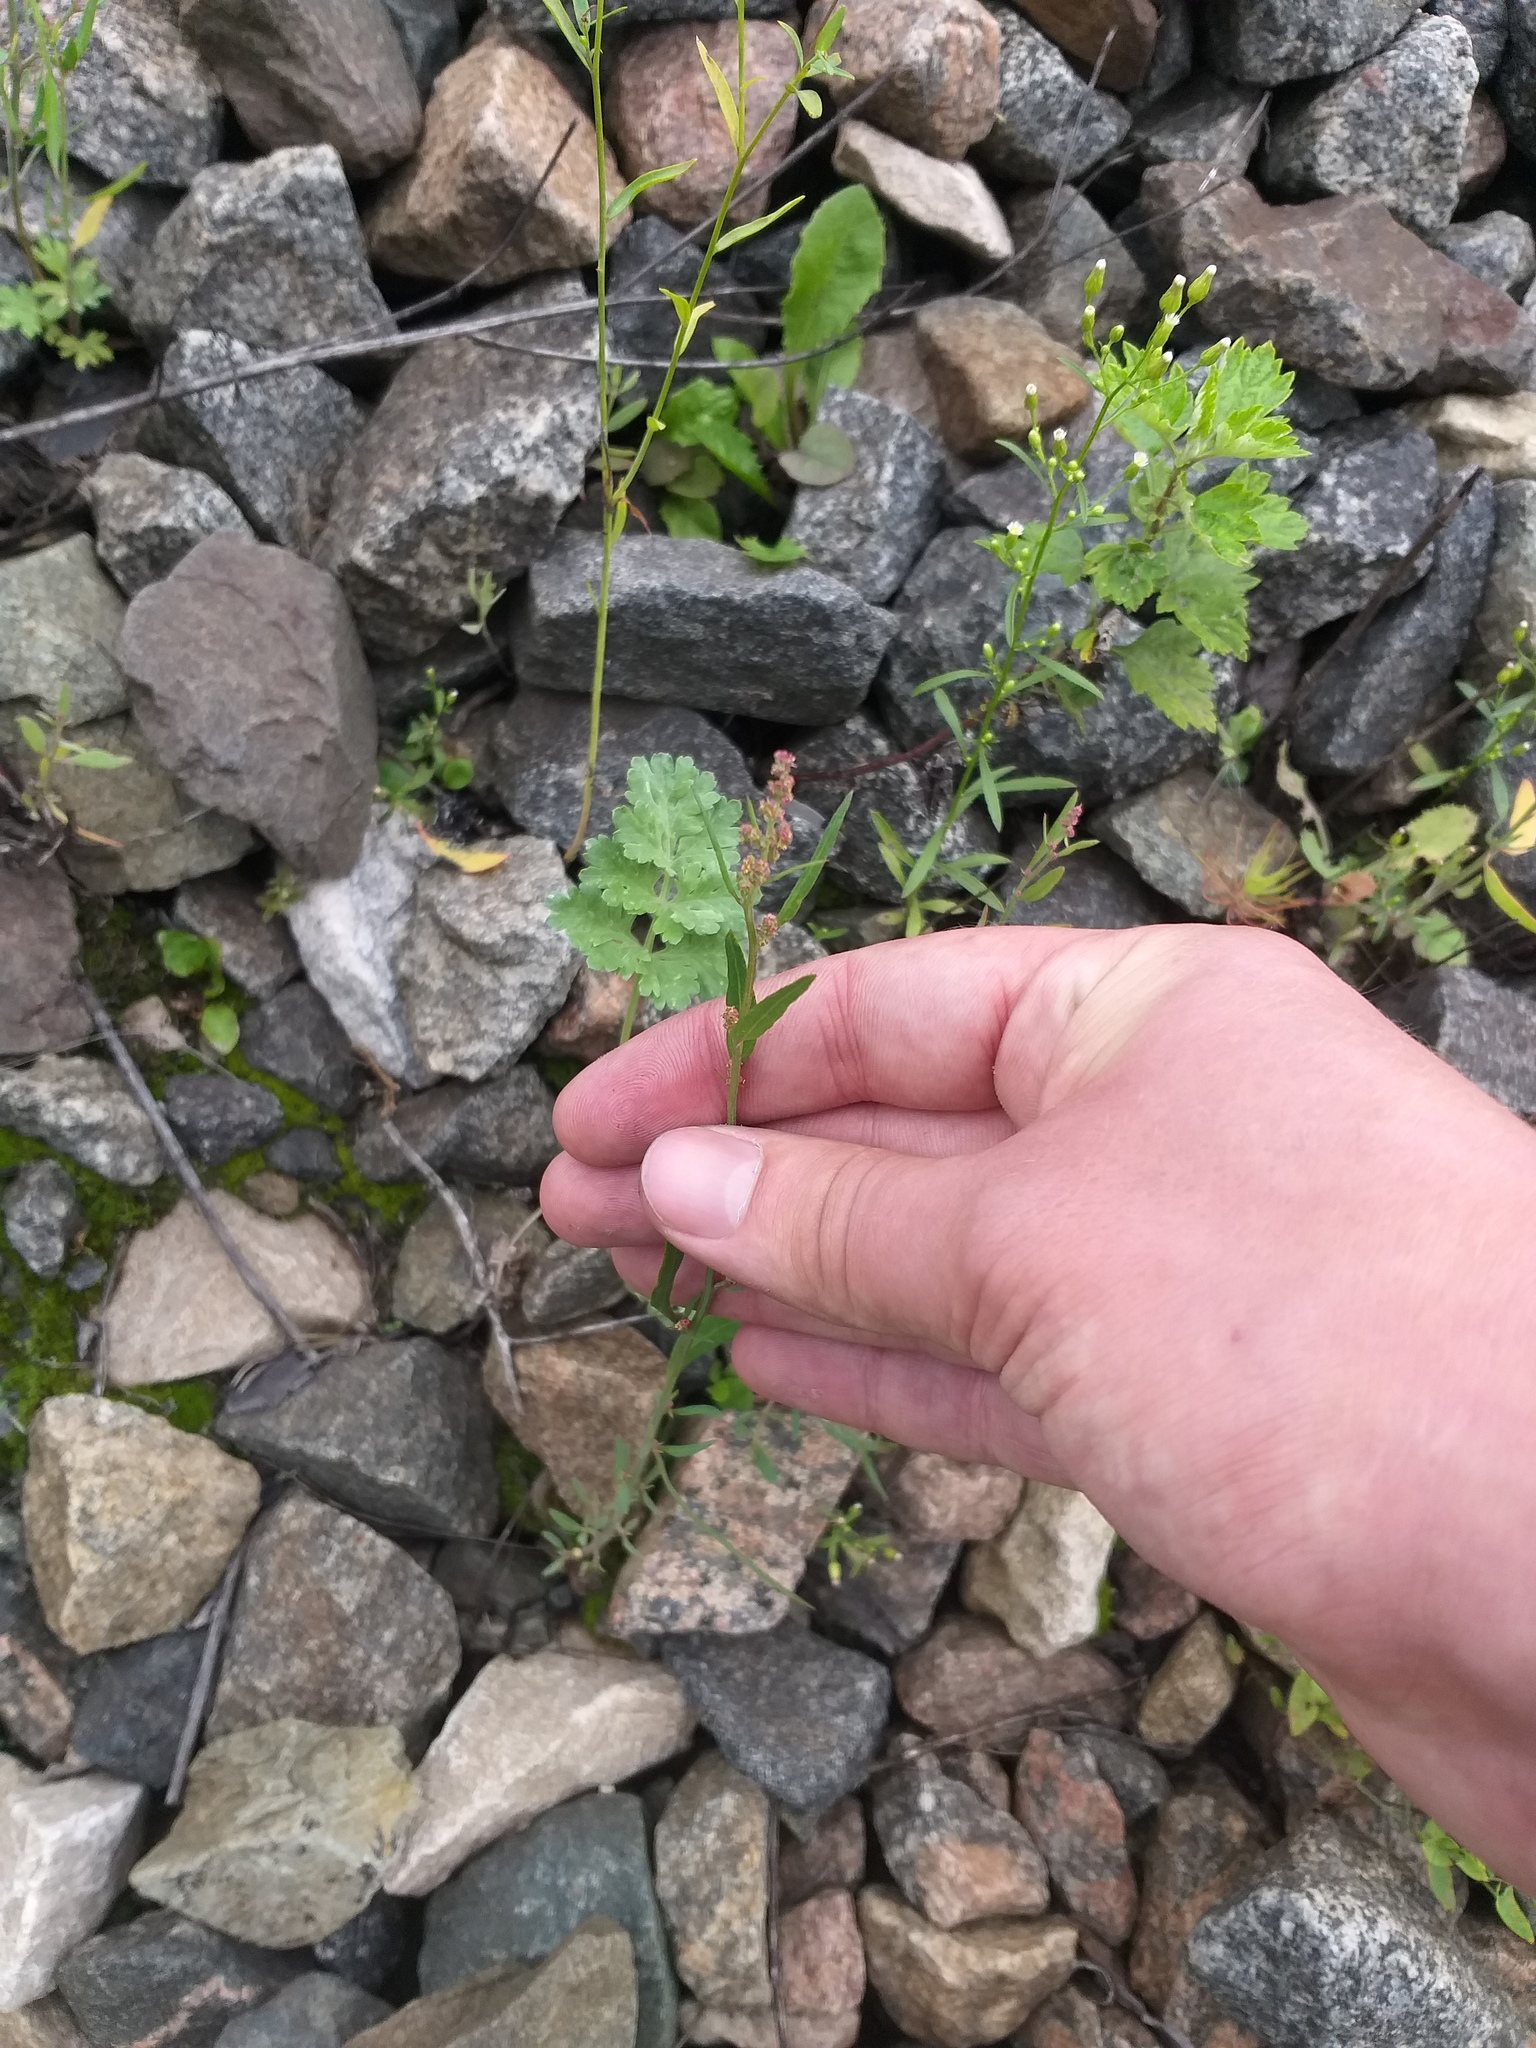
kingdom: Plantae
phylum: Tracheophyta
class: Magnoliopsida
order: Caryophyllales
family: Amaranthaceae
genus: Atriplex
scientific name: Atriplex patula
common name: Common orache
